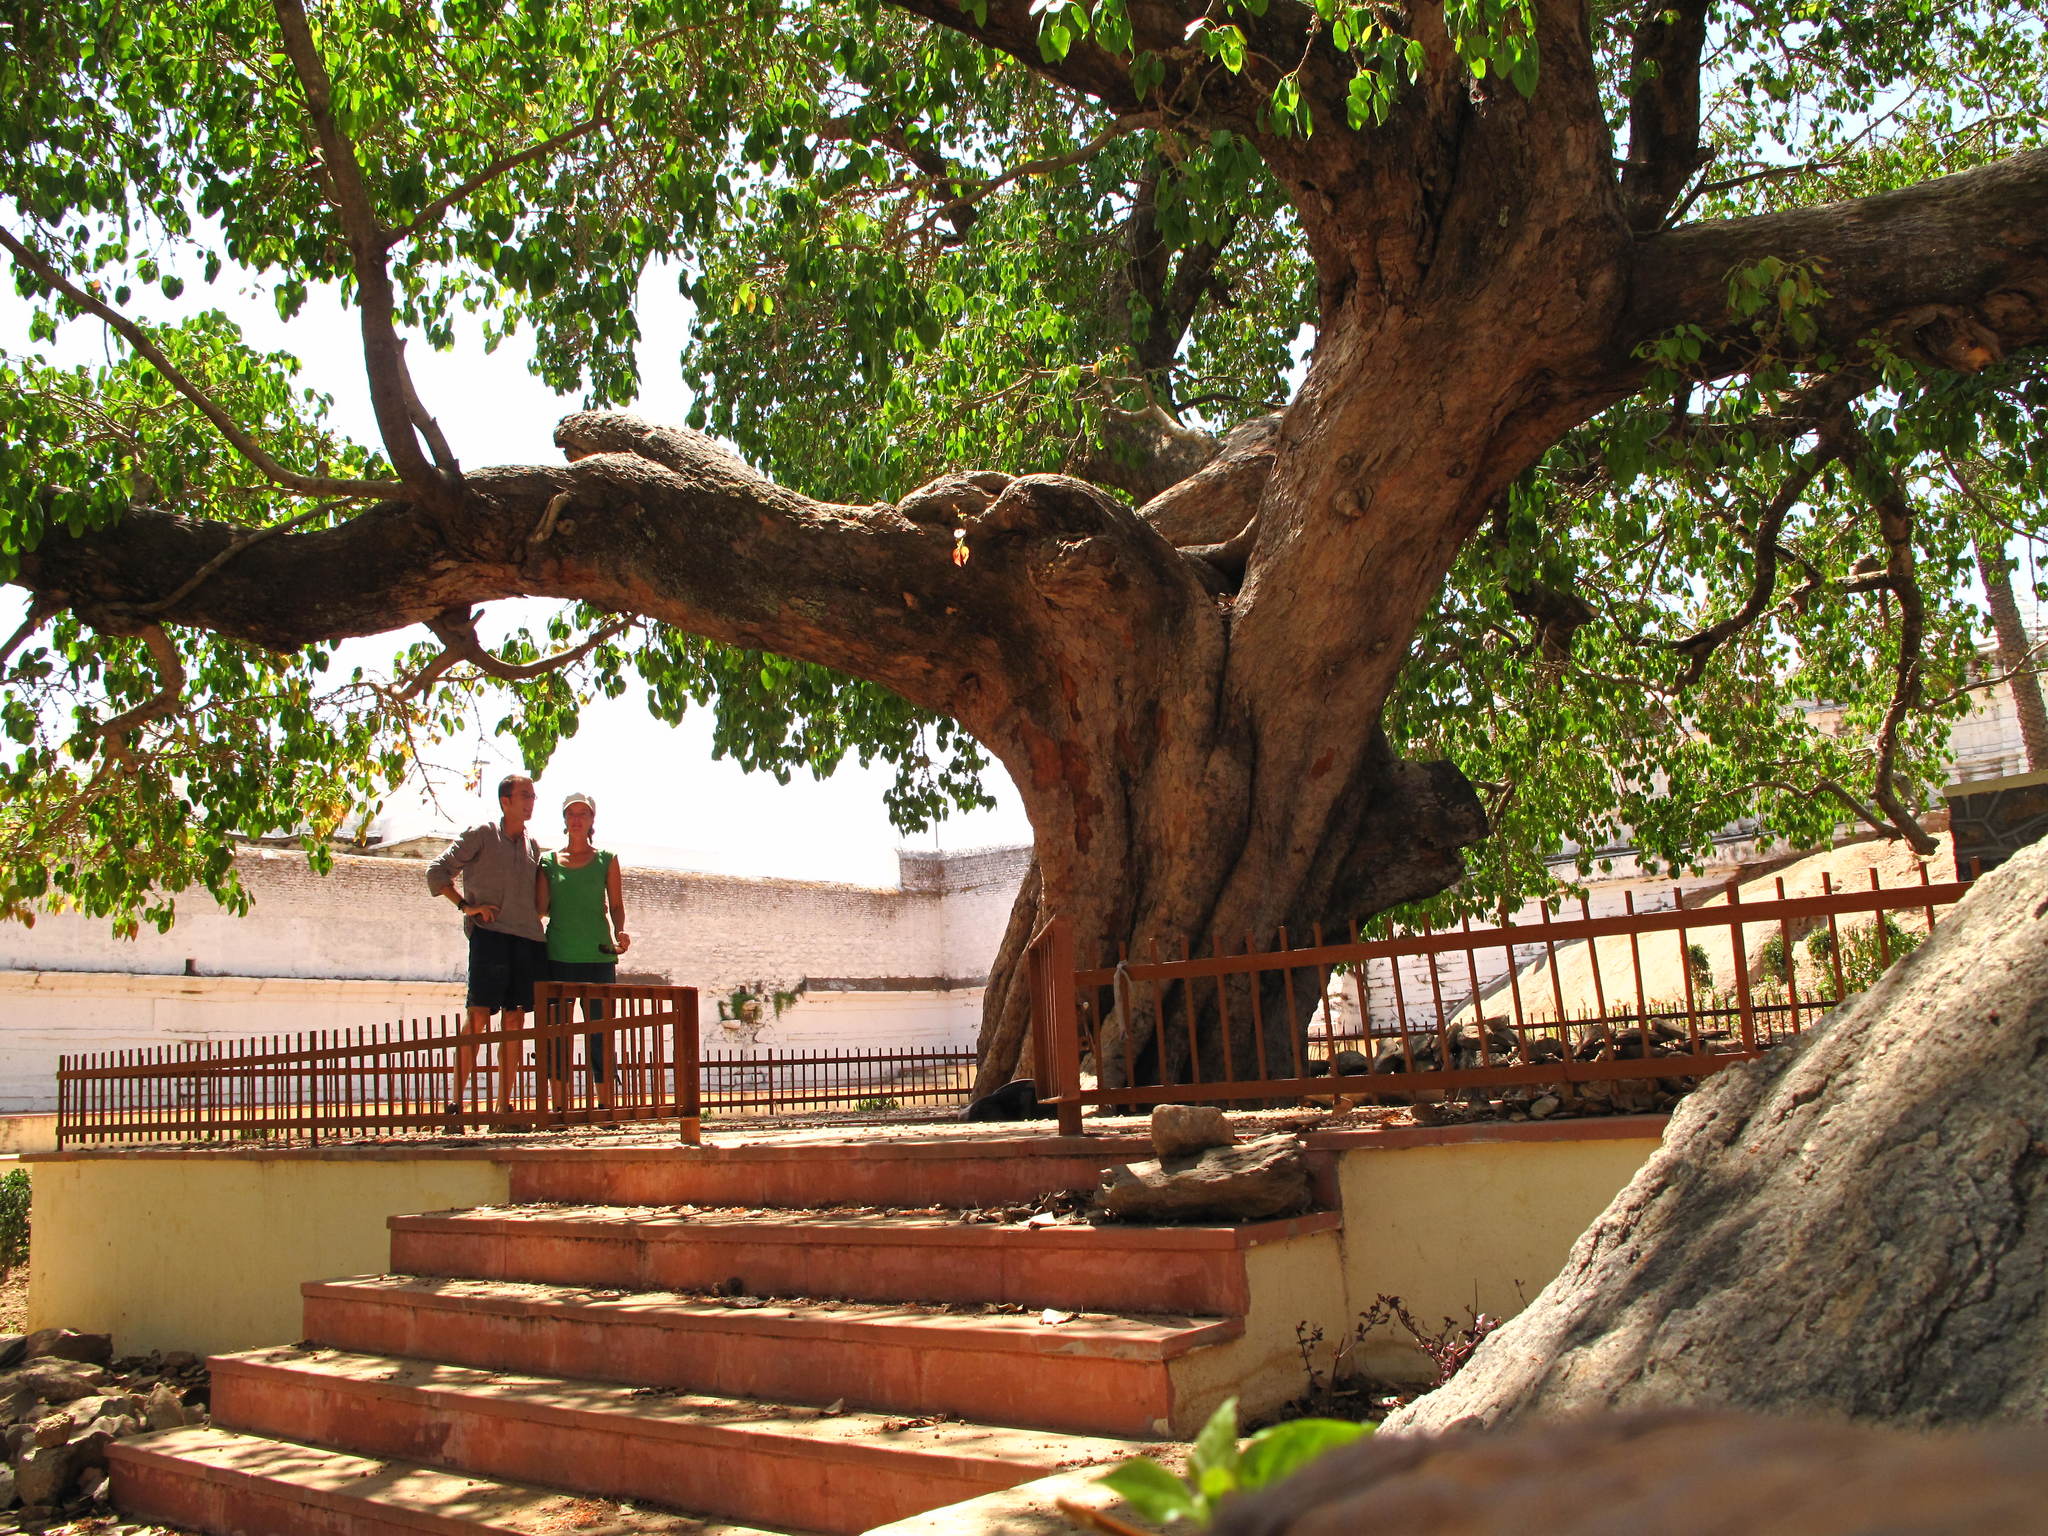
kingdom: Plantae
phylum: Tracheophyta
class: Magnoliopsida
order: Rosales
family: Moraceae
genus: Ficus
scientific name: Ficus religiosa
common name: Bodhi tree
